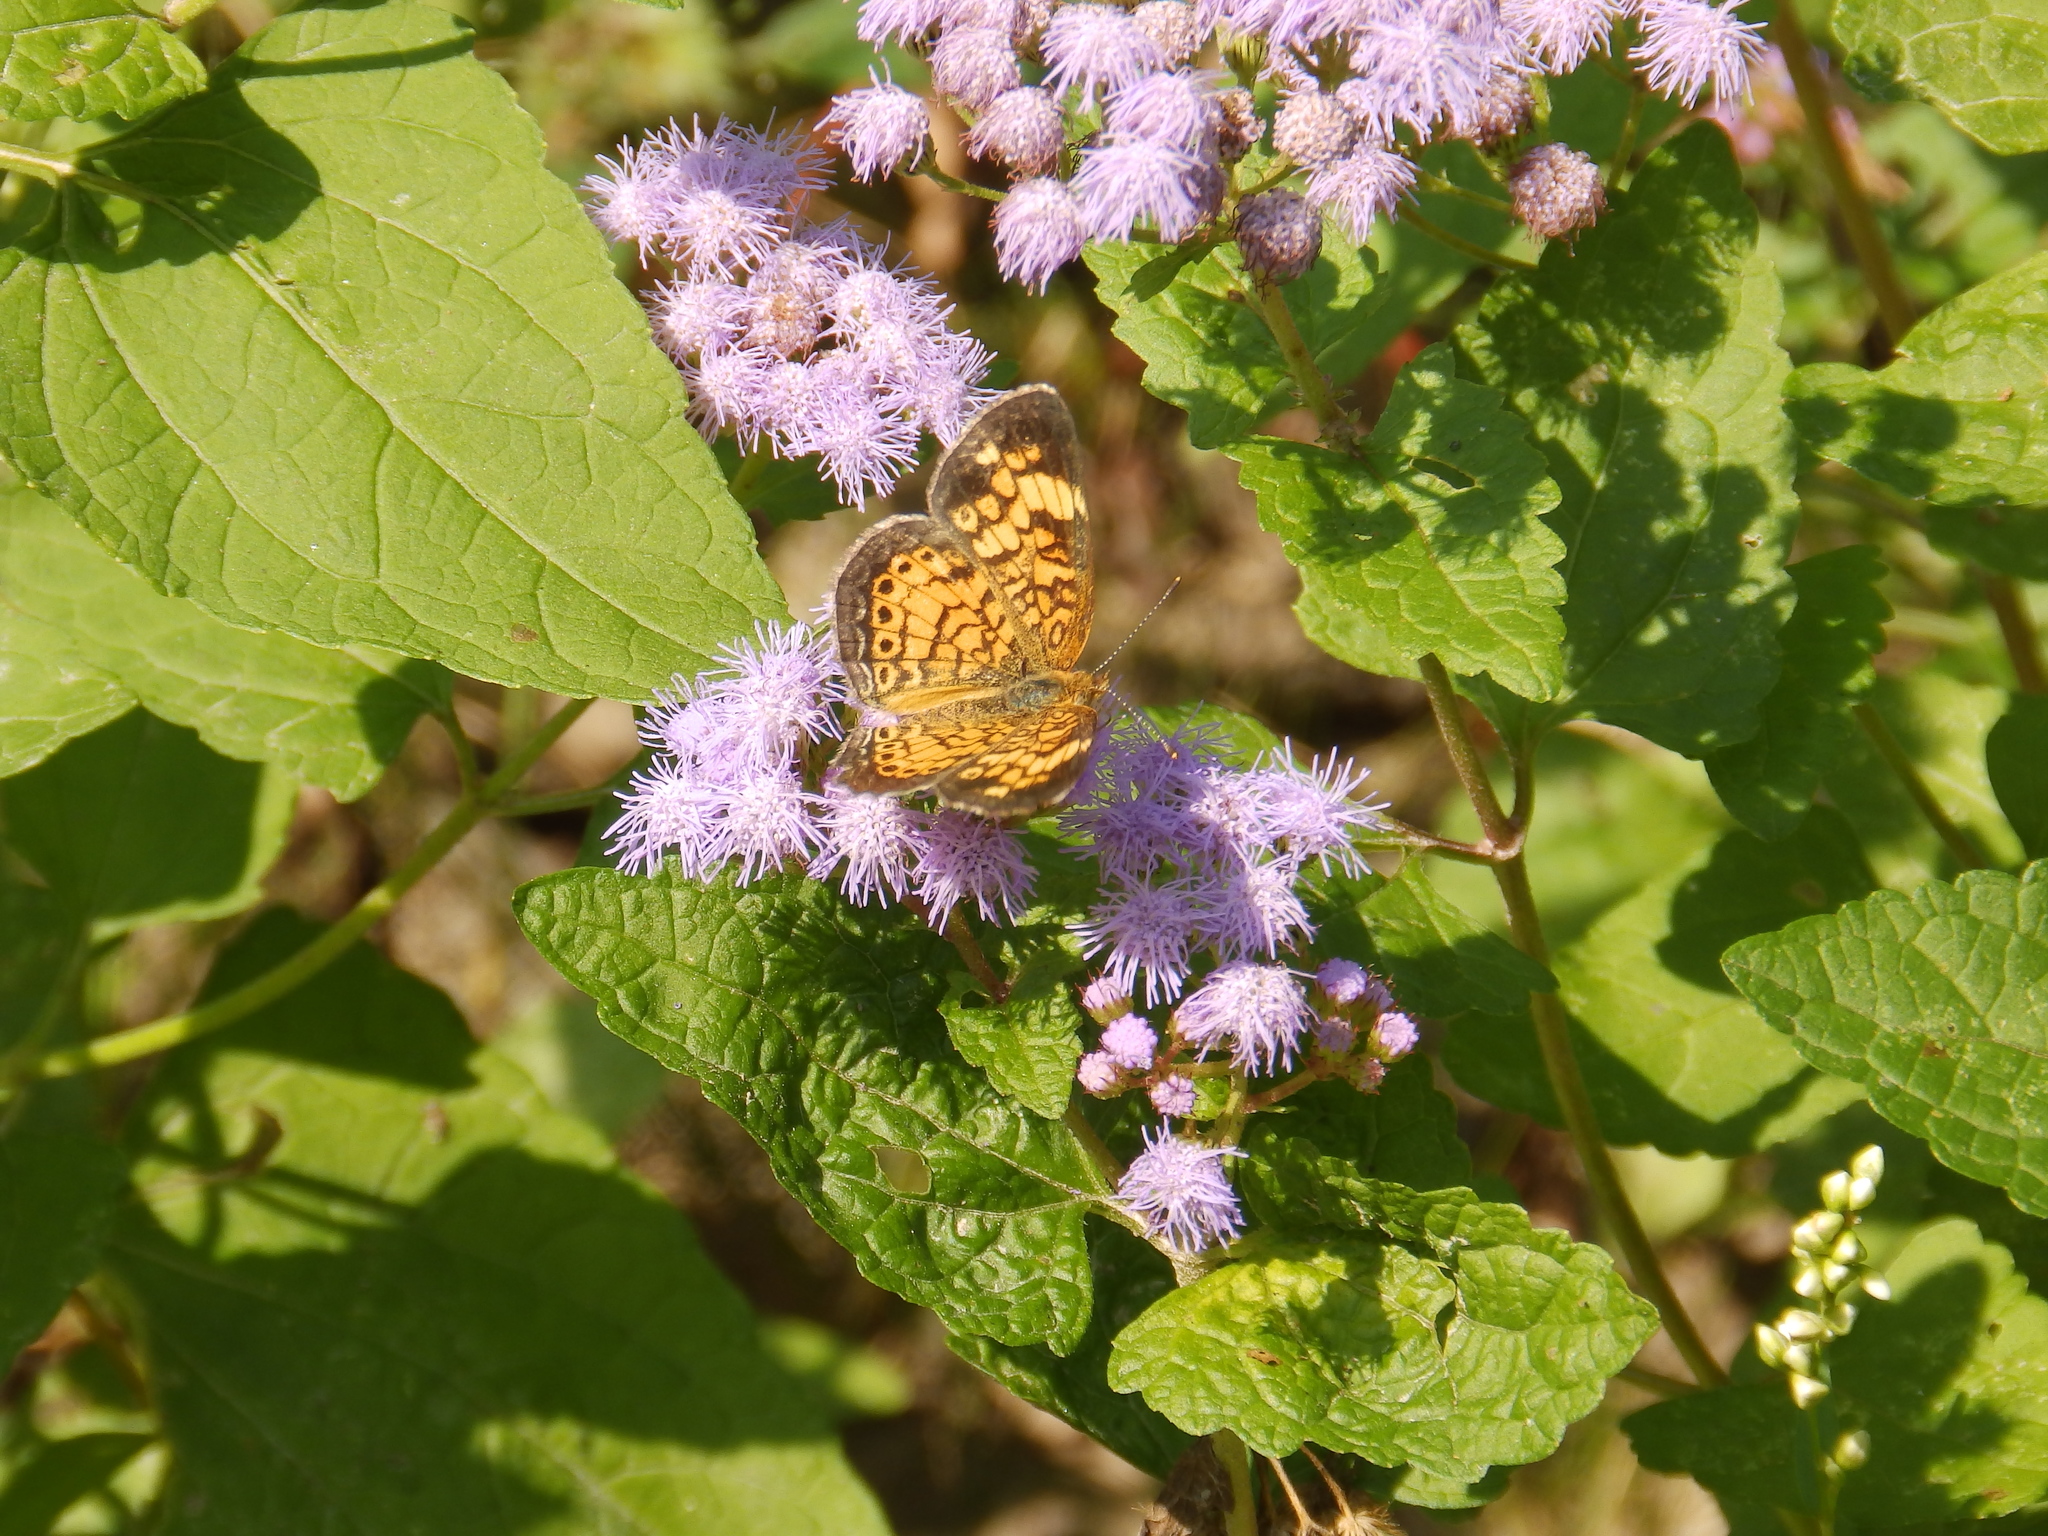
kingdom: Animalia
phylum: Arthropoda
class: Insecta
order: Lepidoptera
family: Nymphalidae
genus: Phyciodes
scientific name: Phyciodes tharos
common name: Pearl crescent
